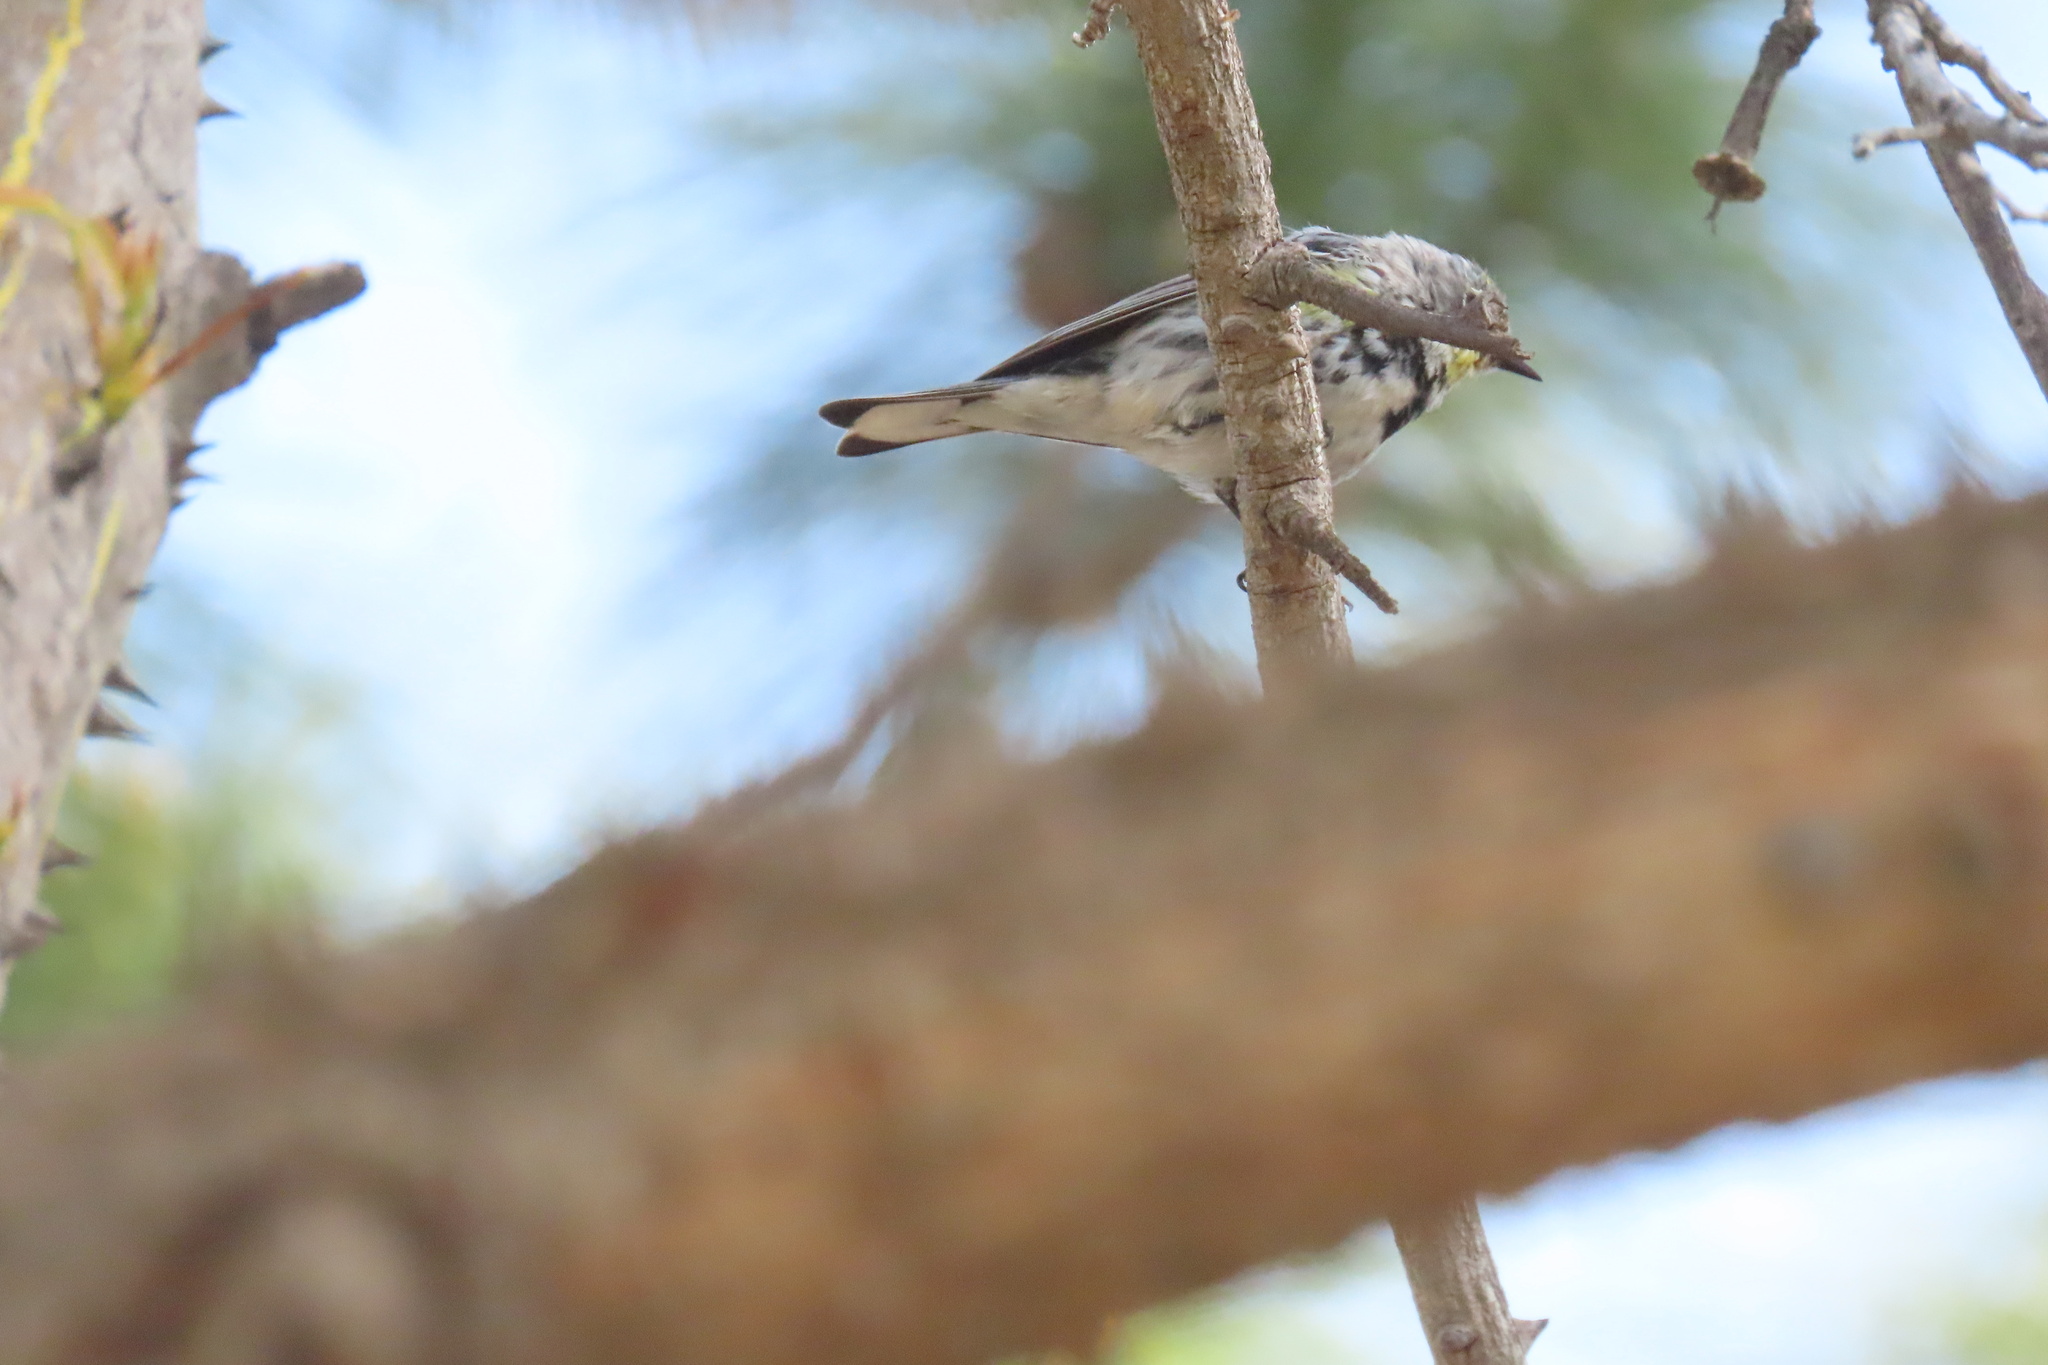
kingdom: Animalia
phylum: Chordata
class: Aves
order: Passeriformes
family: Parulidae
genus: Setophaga
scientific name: Setophaga coronata
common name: Myrtle warbler
